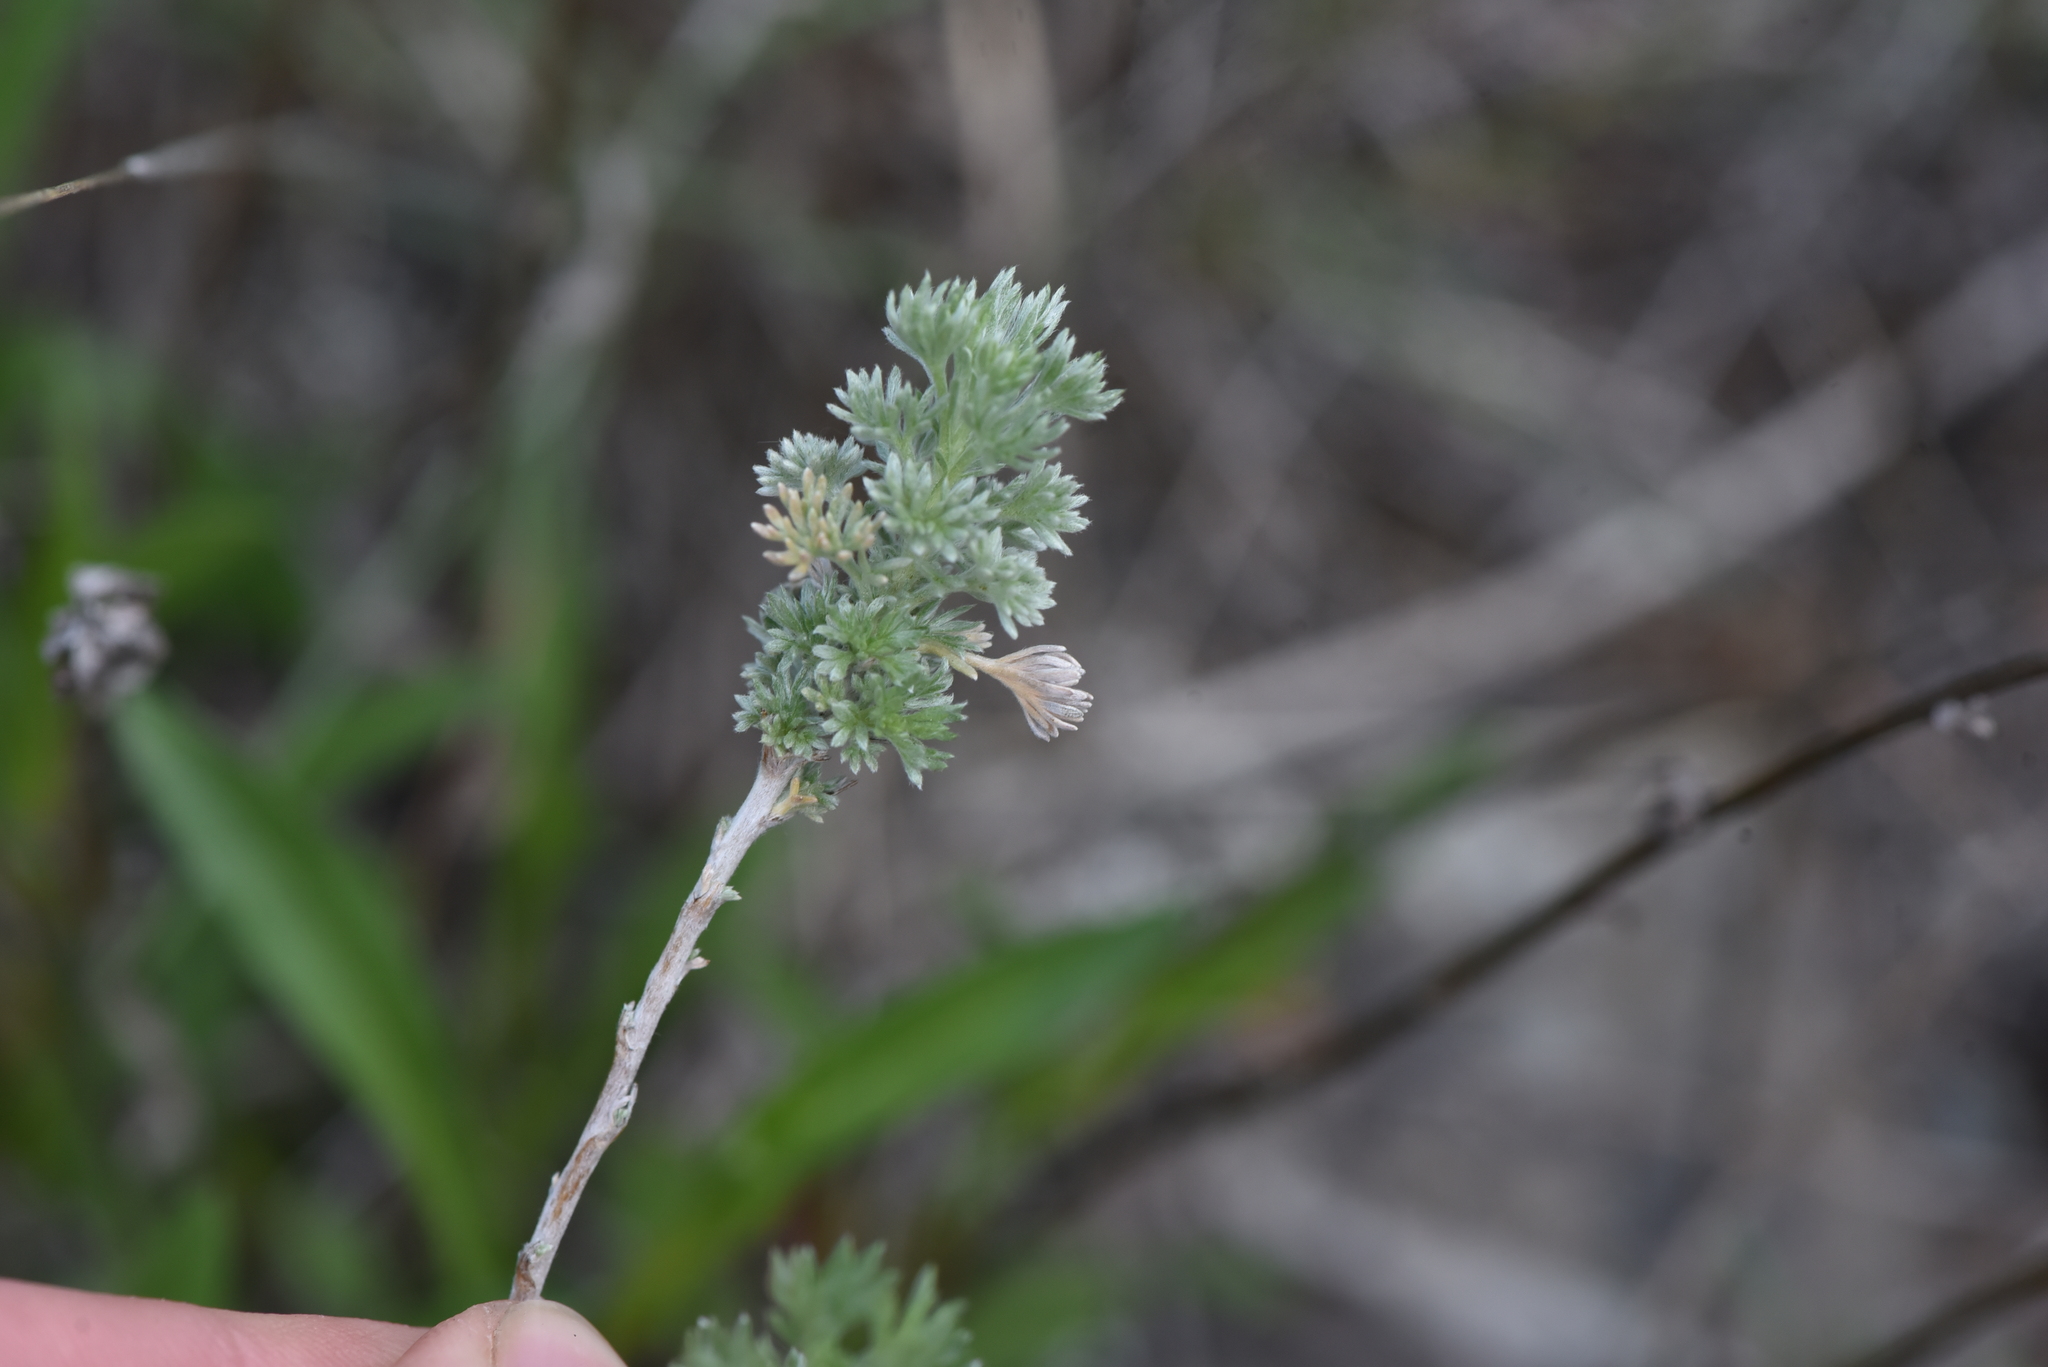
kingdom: Plantae
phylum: Tracheophyta
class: Magnoliopsida
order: Asterales
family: Asteraceae
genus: Artemisia
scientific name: Artemisia frigida
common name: Prairie sagewort
